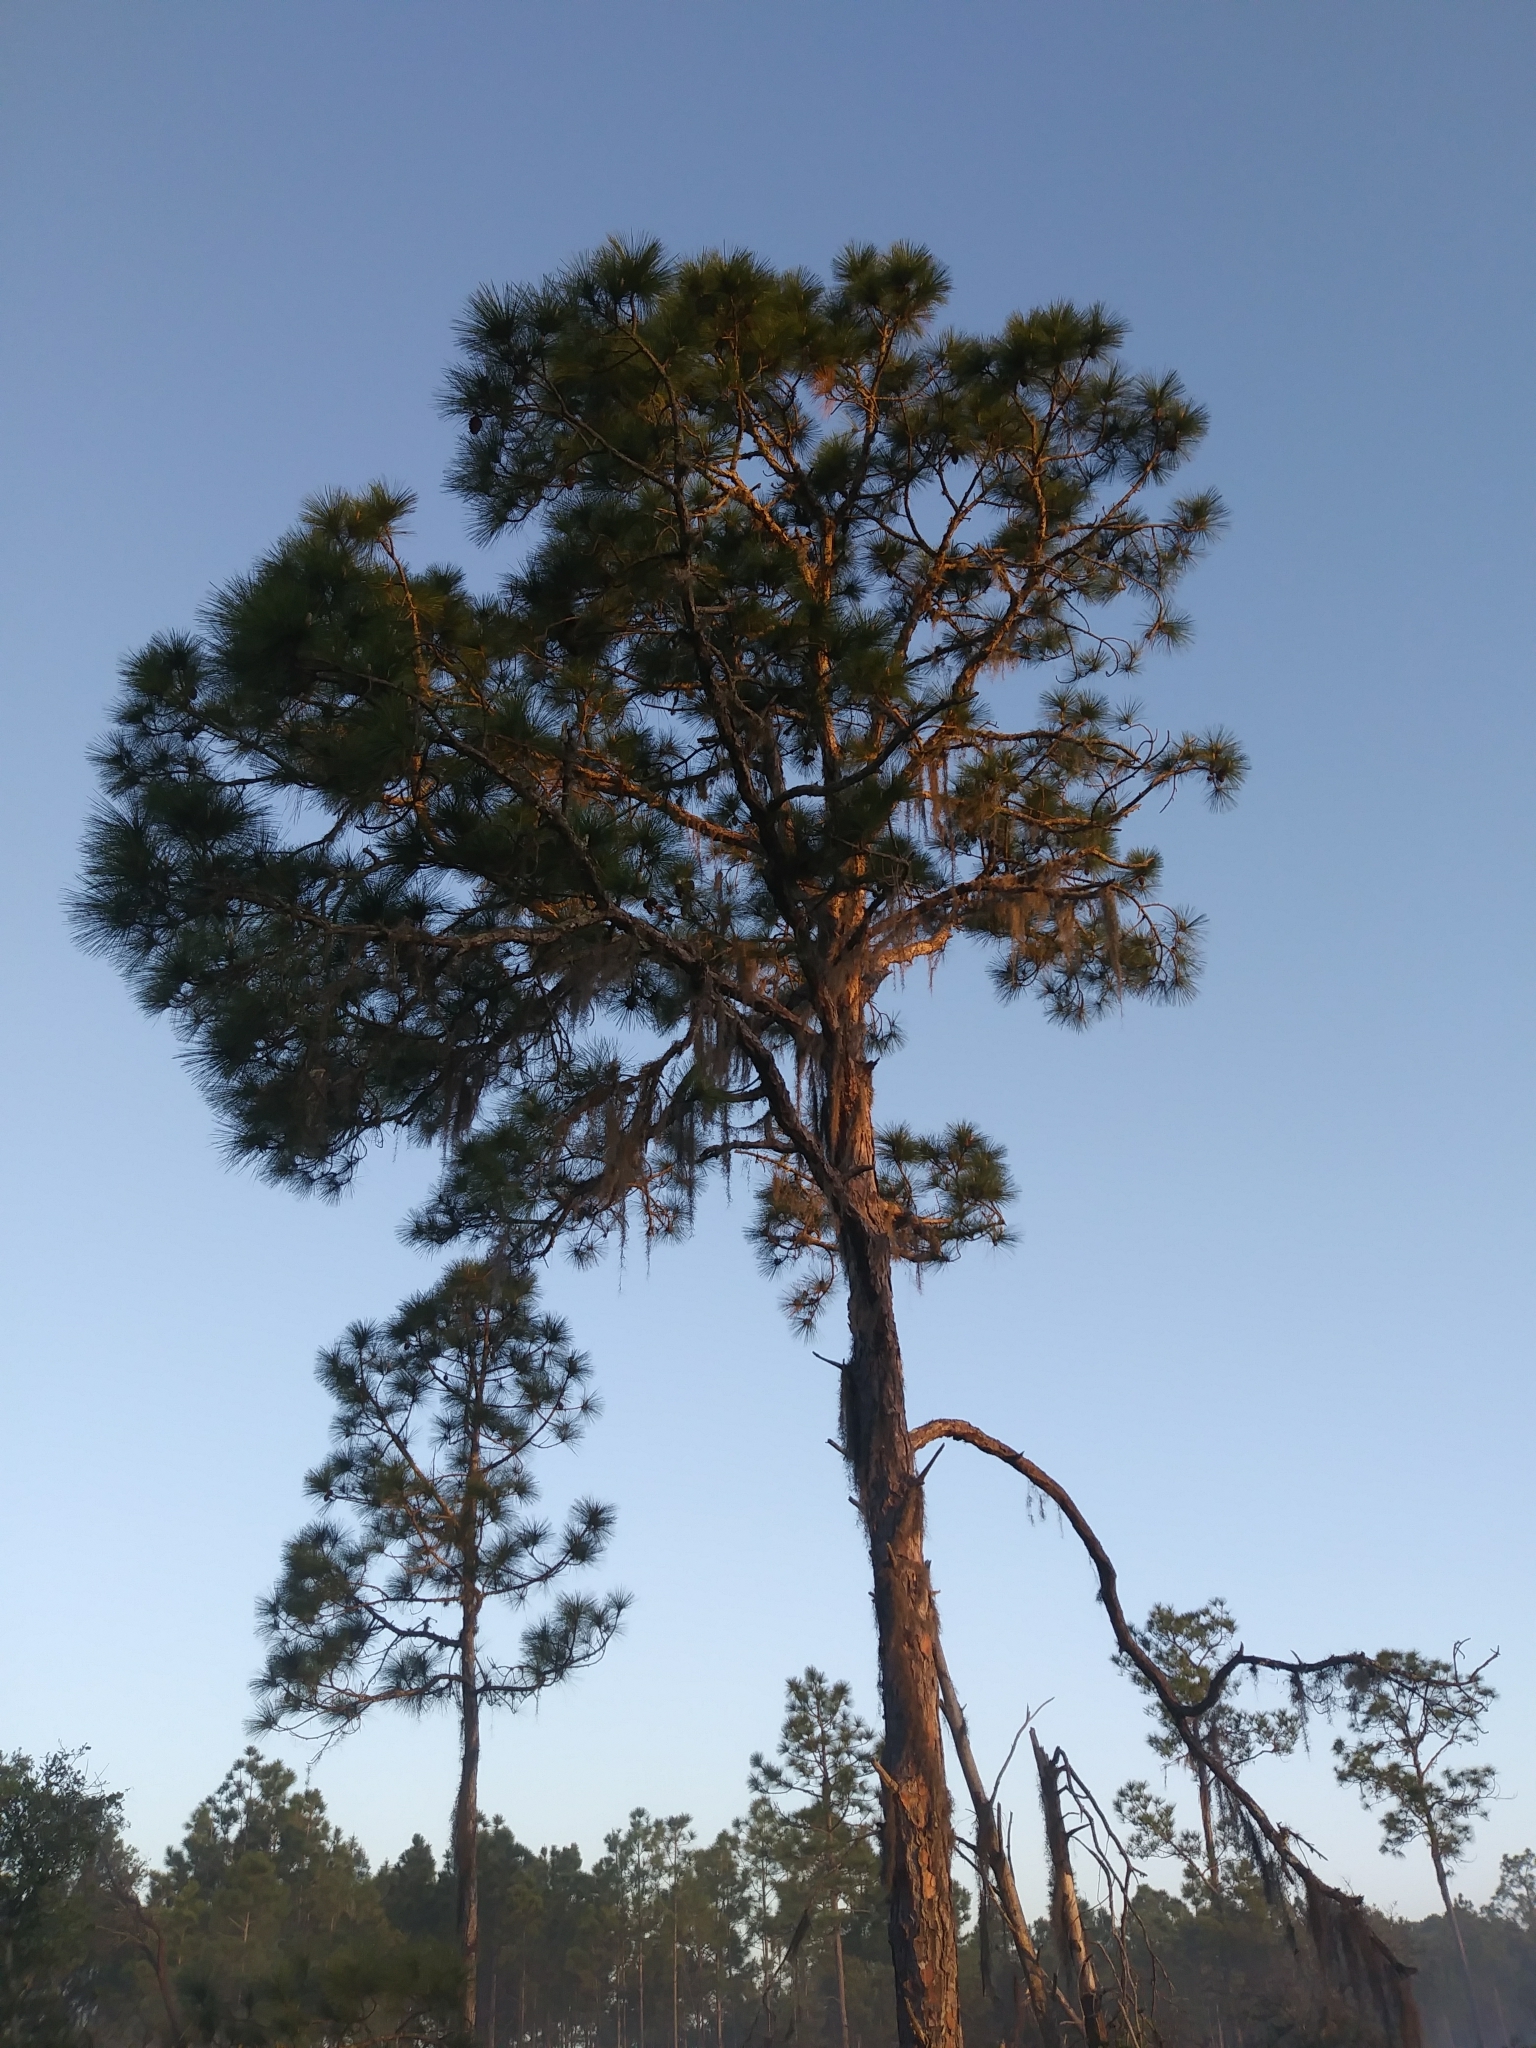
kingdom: Plantae
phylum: Tracheophyta
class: Pinopsida
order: Pinales
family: Pinaceae
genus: Pinus
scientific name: Pinus elliottii
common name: Slash pine
